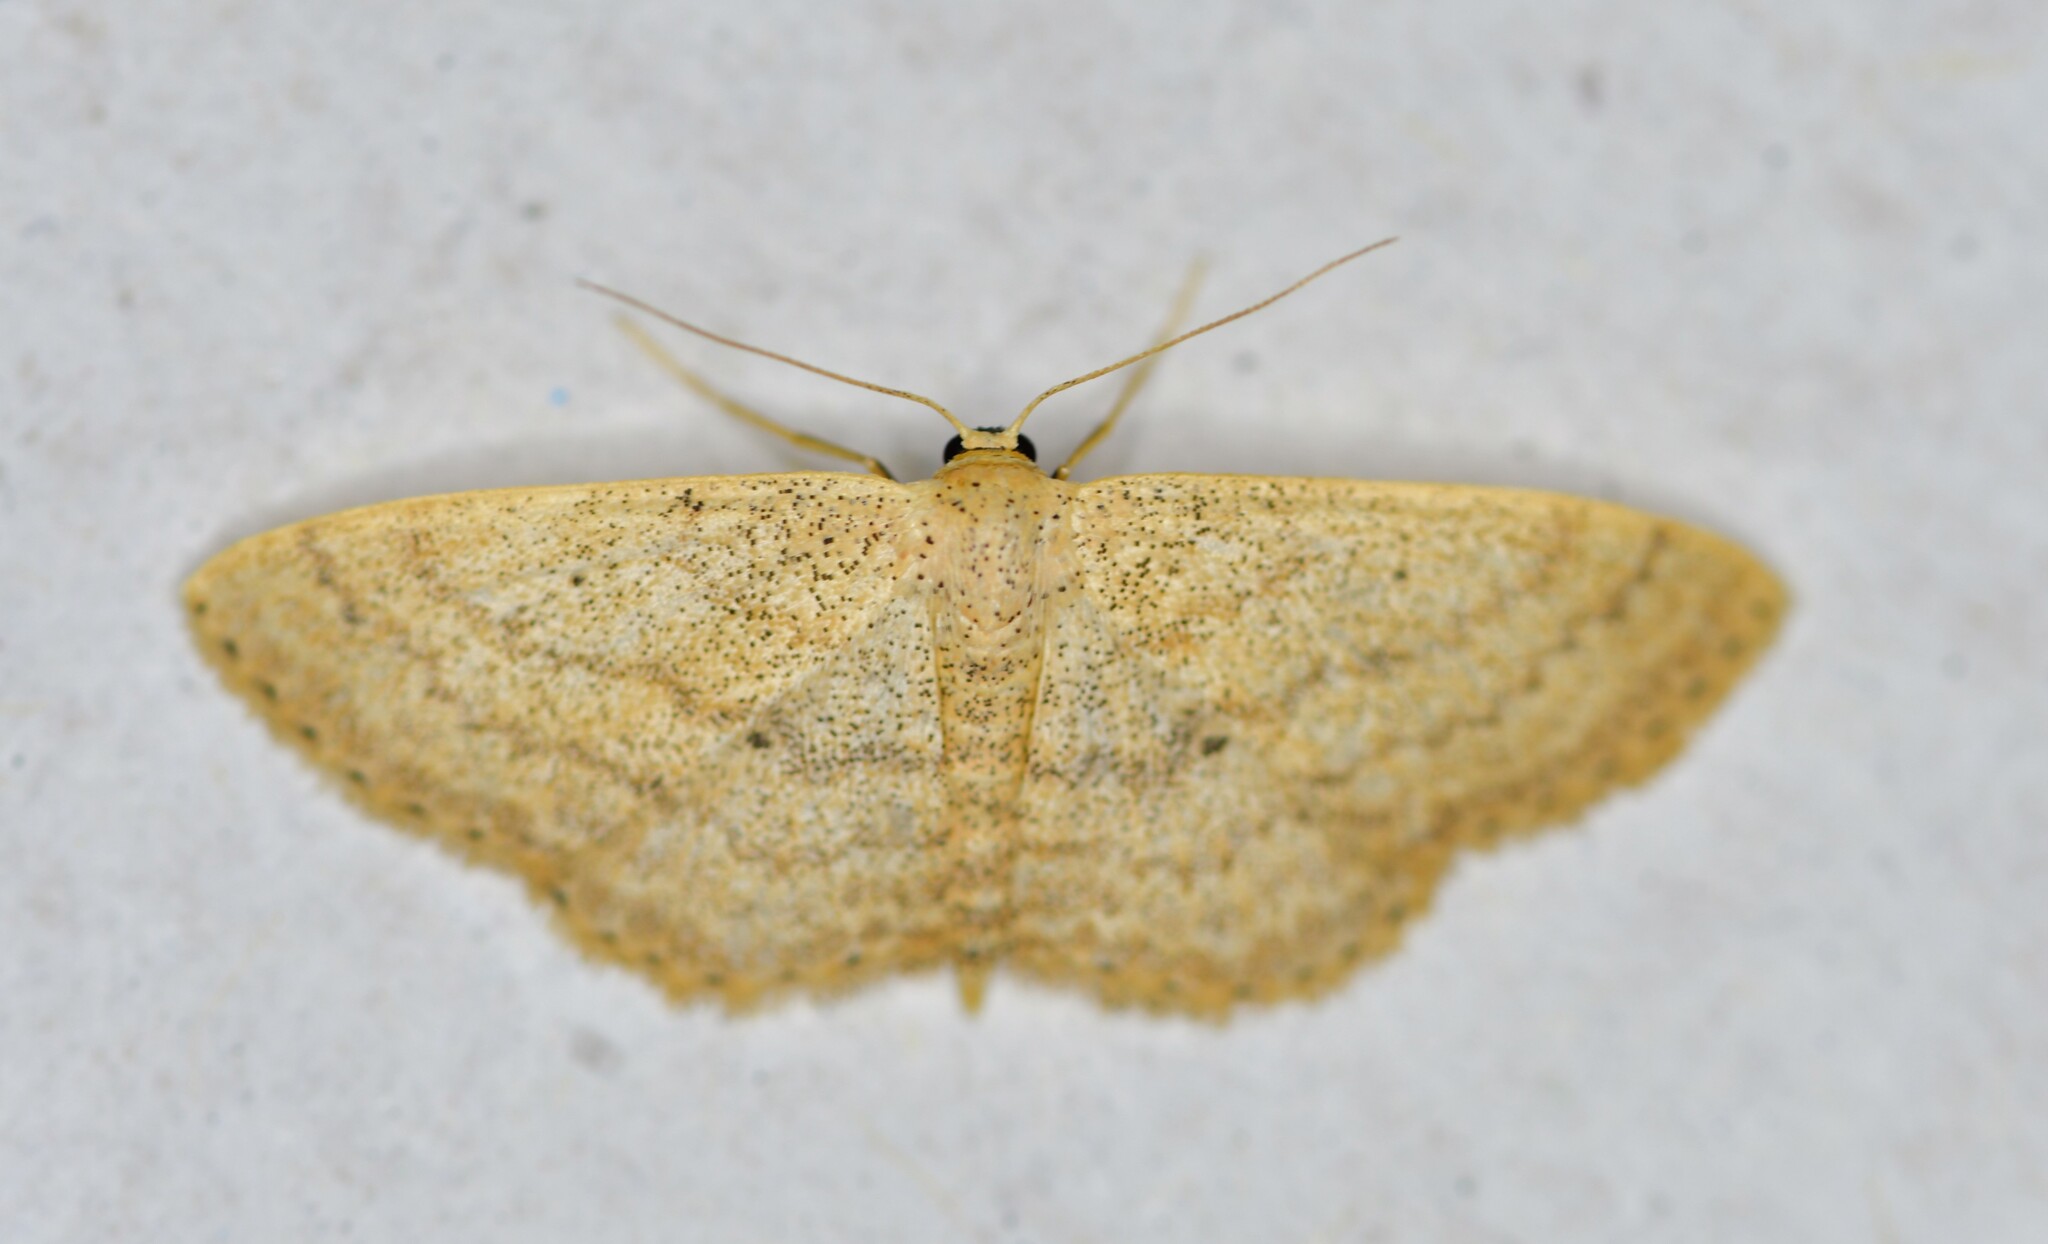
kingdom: Animalia
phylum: Arthropoda
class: Insecta
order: Lepidoptera
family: Geometridae
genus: Scopula
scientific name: Scopula minorata
